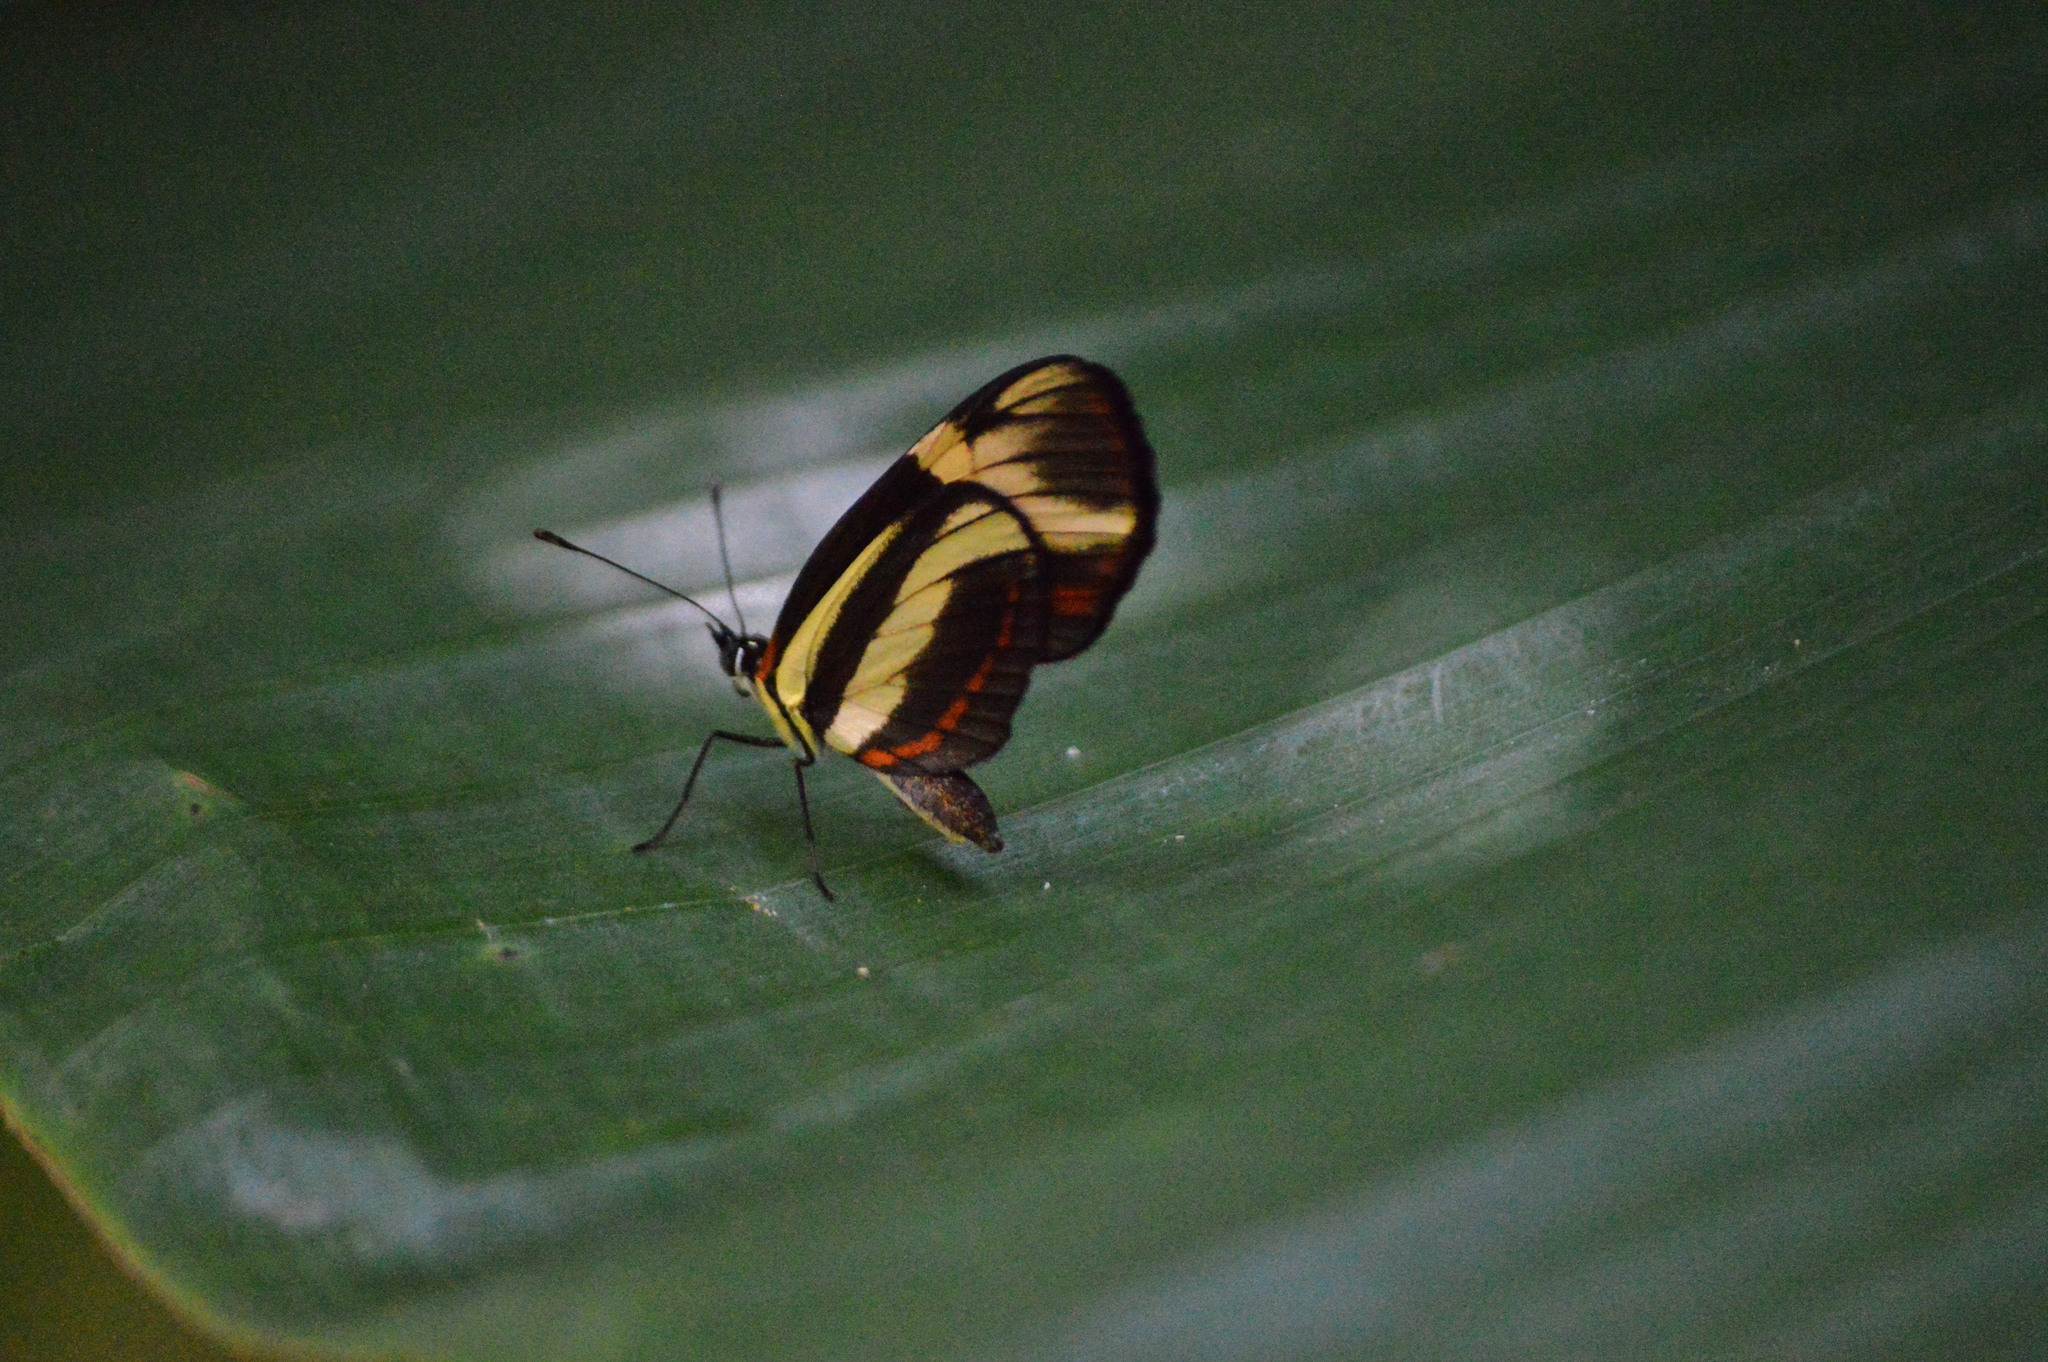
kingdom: Animalia
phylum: Arthropoda
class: Insecta
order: Lepidoptera
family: Nymphalidae
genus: Eresia
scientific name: Eresia lansdorfi
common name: Lansdorf's crescent
